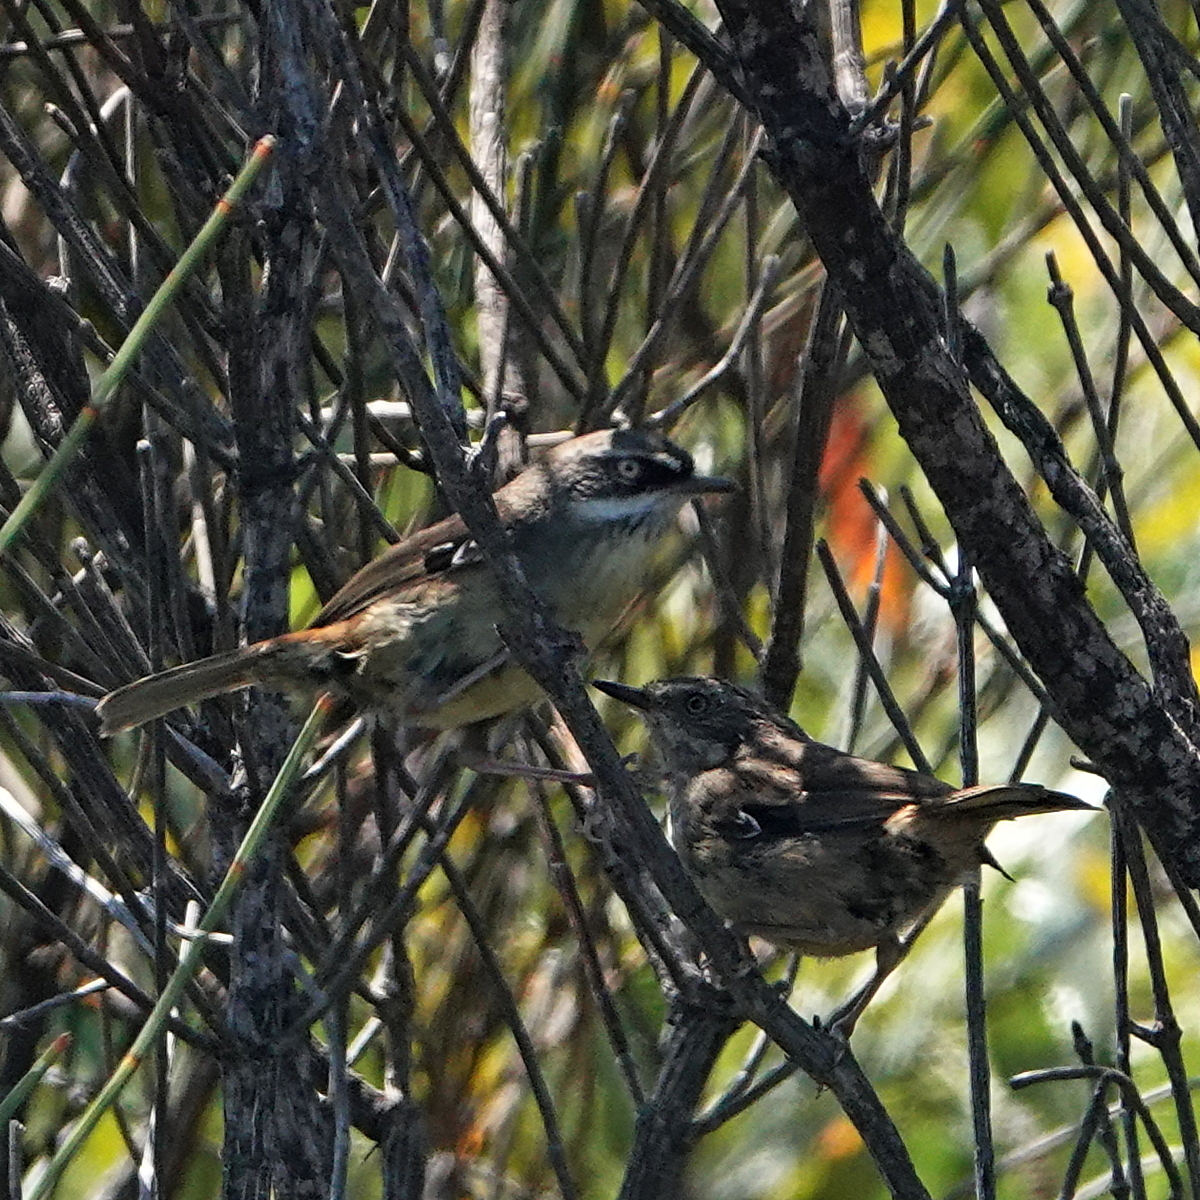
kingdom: Animalia
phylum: Chordata
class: Aves
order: Passeriformes
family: Acanthizidae
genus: Sericornis
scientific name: Sericornis frontalis
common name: White-browed scrubwren
